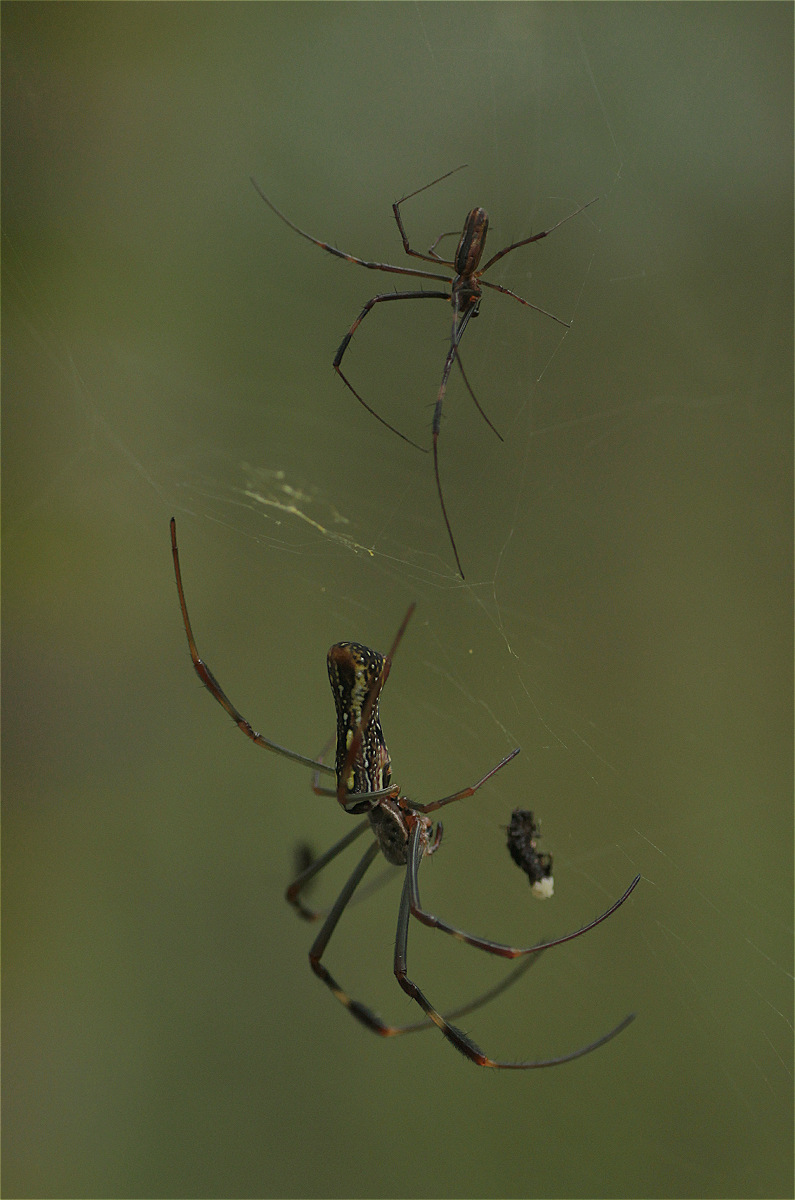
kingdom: Animalia
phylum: Arthropoda
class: Arachnida
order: Araneae
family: Araneidae
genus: Trichonephila
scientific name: Trichonephila clavipes
